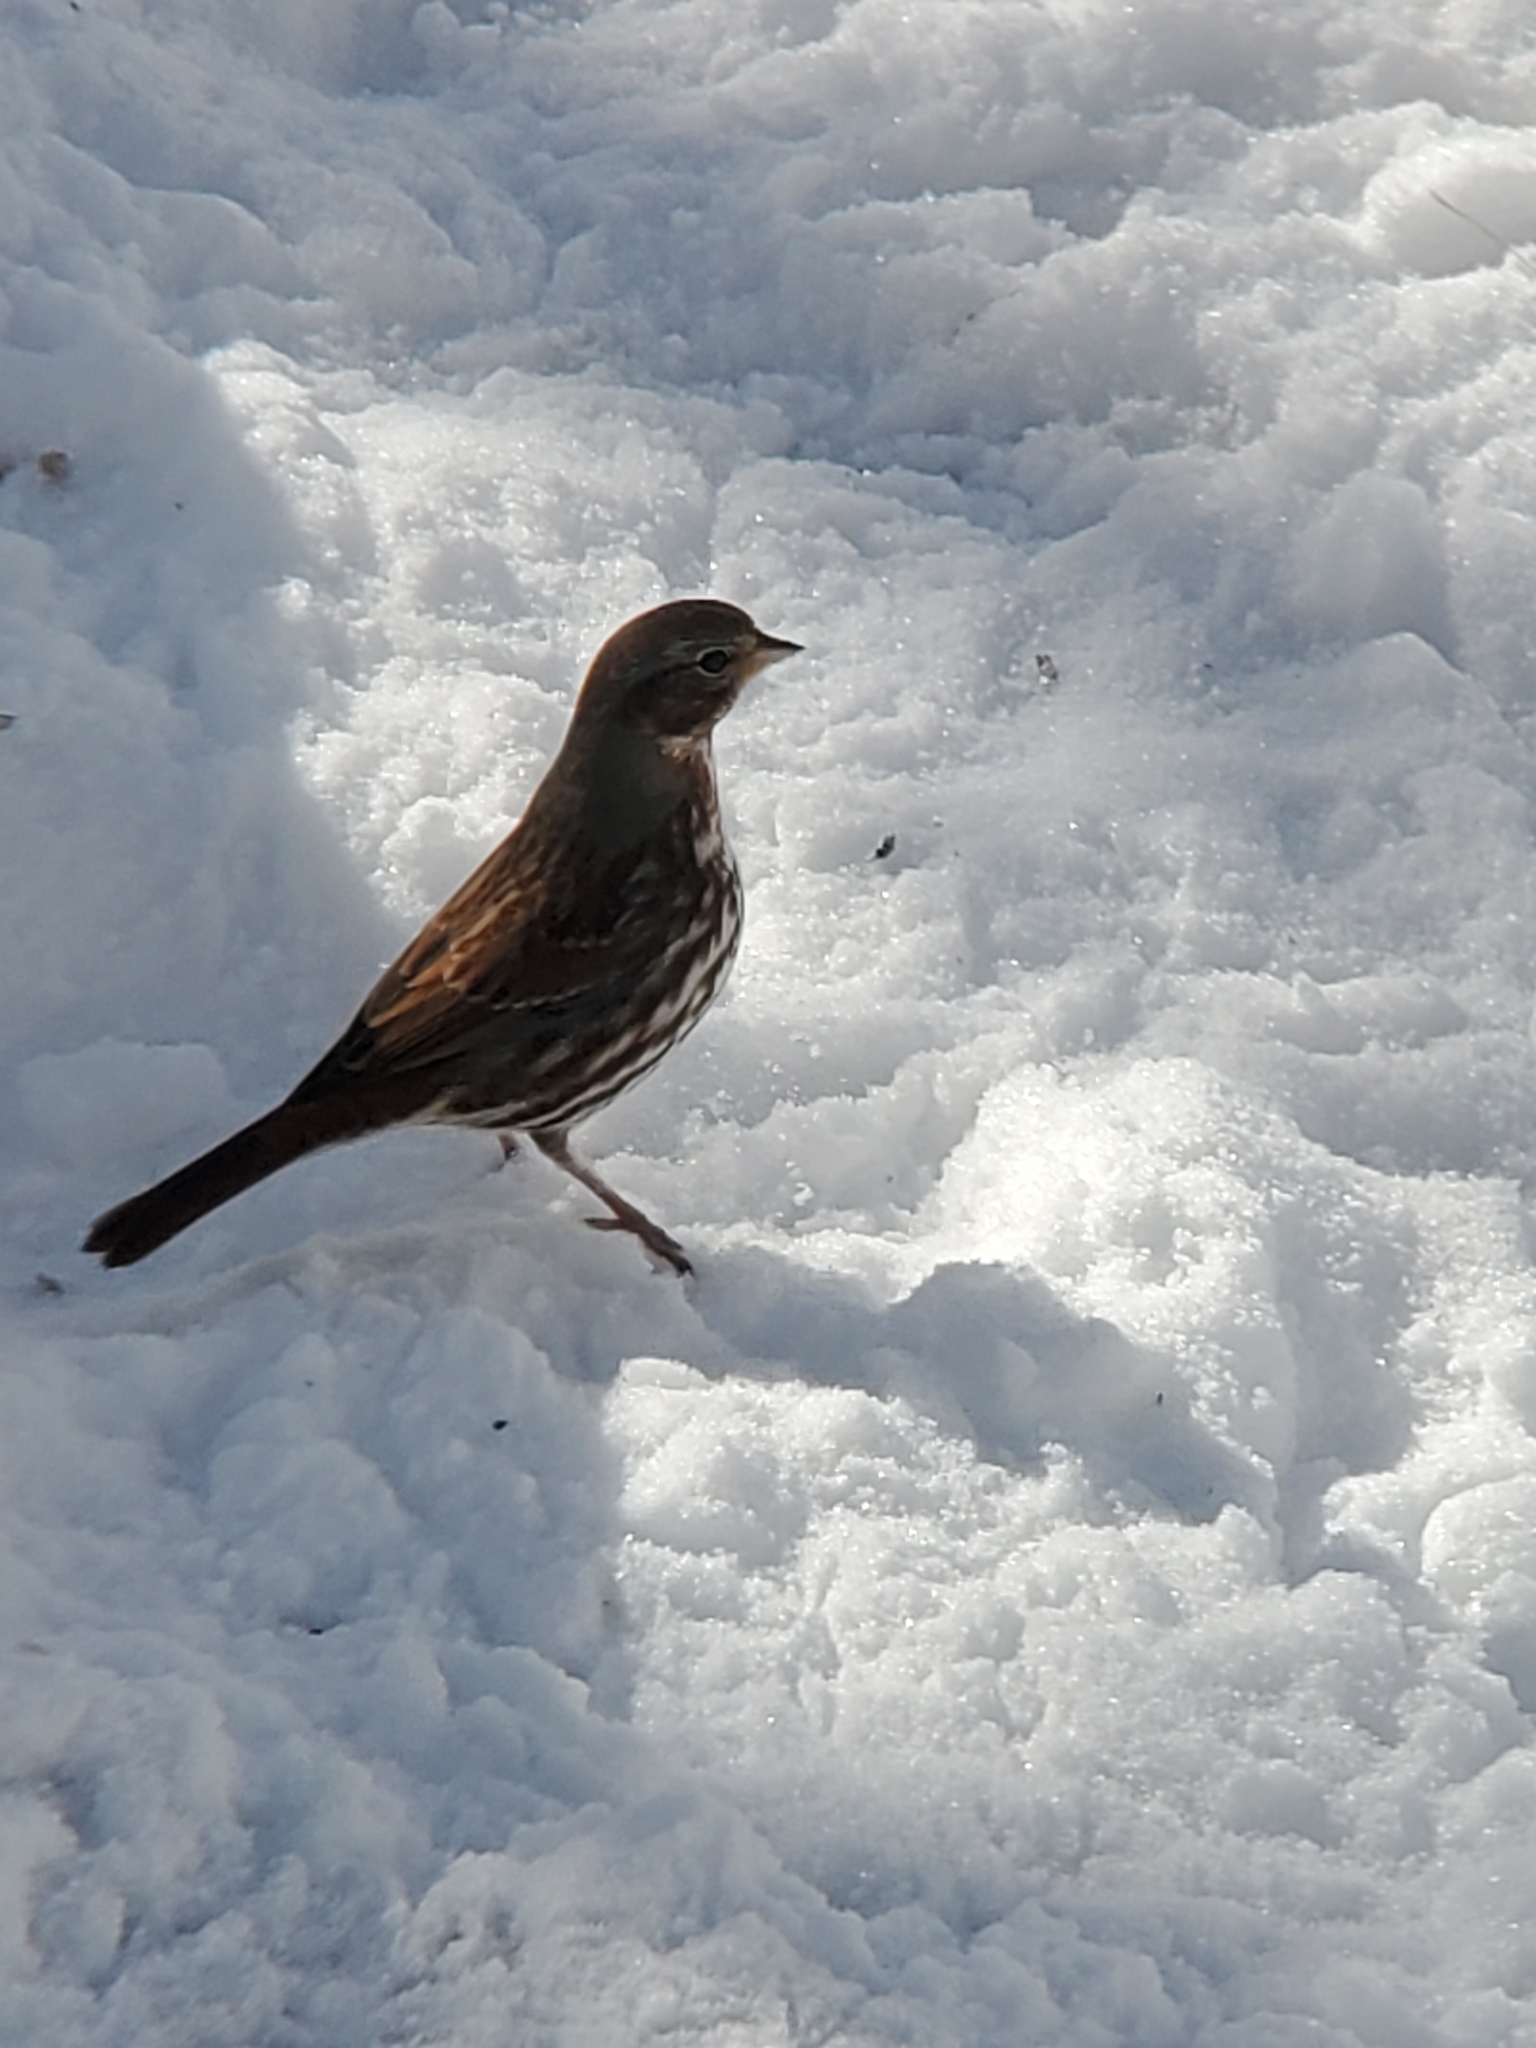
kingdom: Animalia
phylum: Chordata
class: Aves
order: Passeriformes
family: Passerellidae
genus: Passerella
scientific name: Passerella iliaca
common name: Fox sparrow
